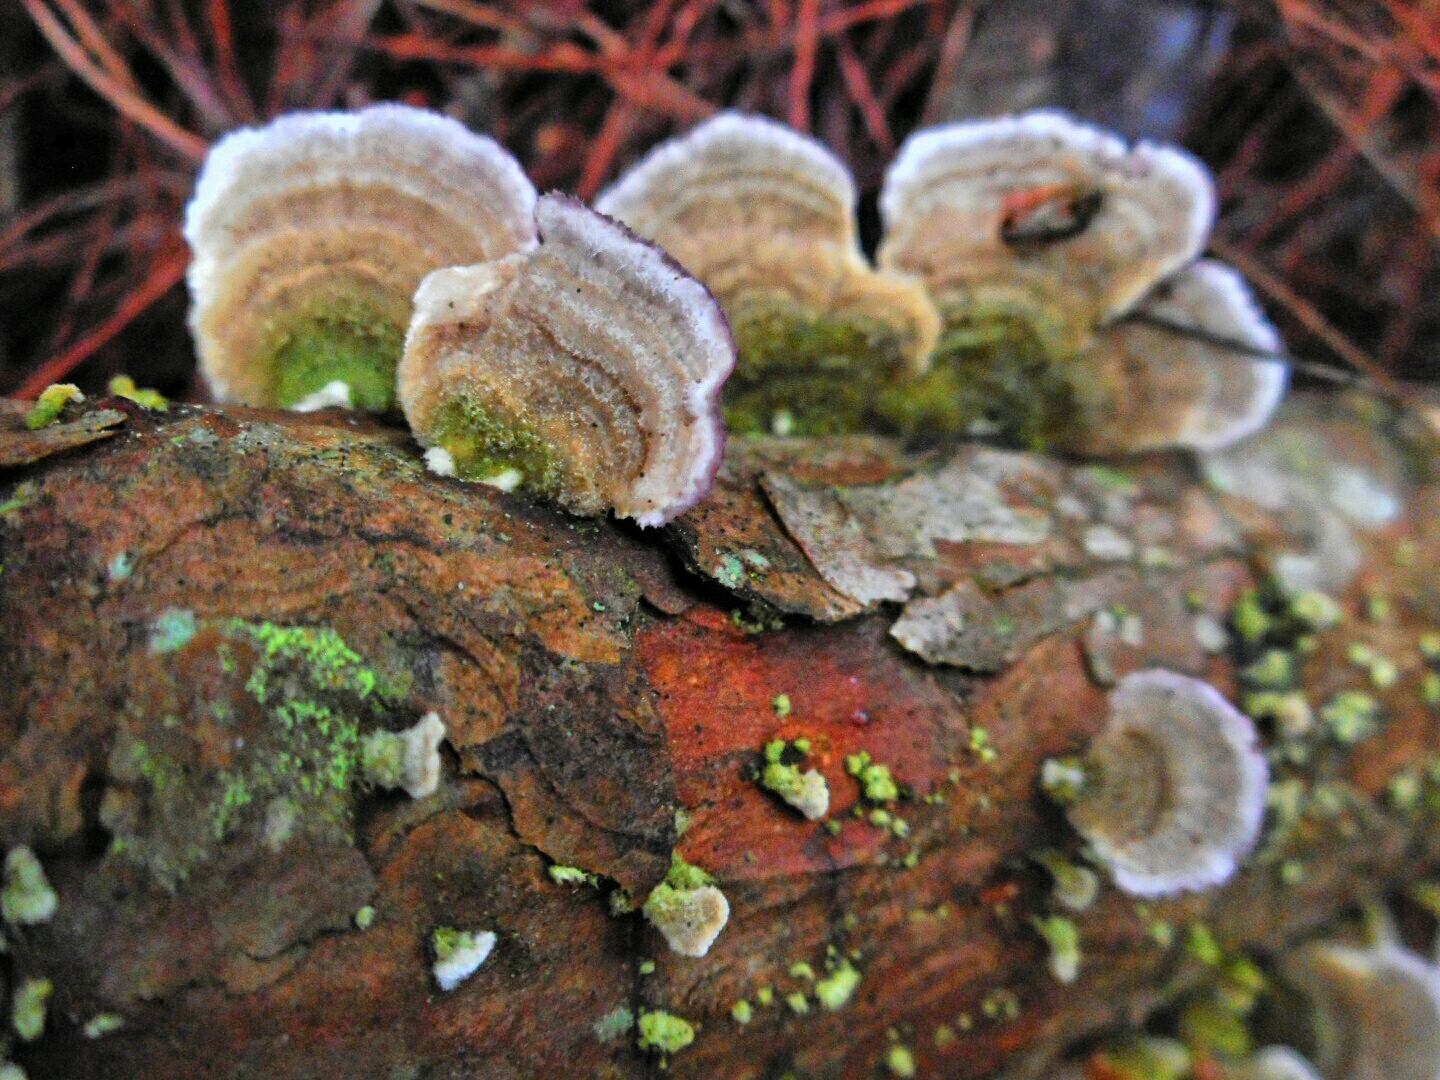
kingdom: Fungi
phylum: Basidiomycota
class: Agaricomycetes
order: Hymenochaetales
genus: Trichaptum
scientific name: Trichaptum abietinum
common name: Purplepore bracket
